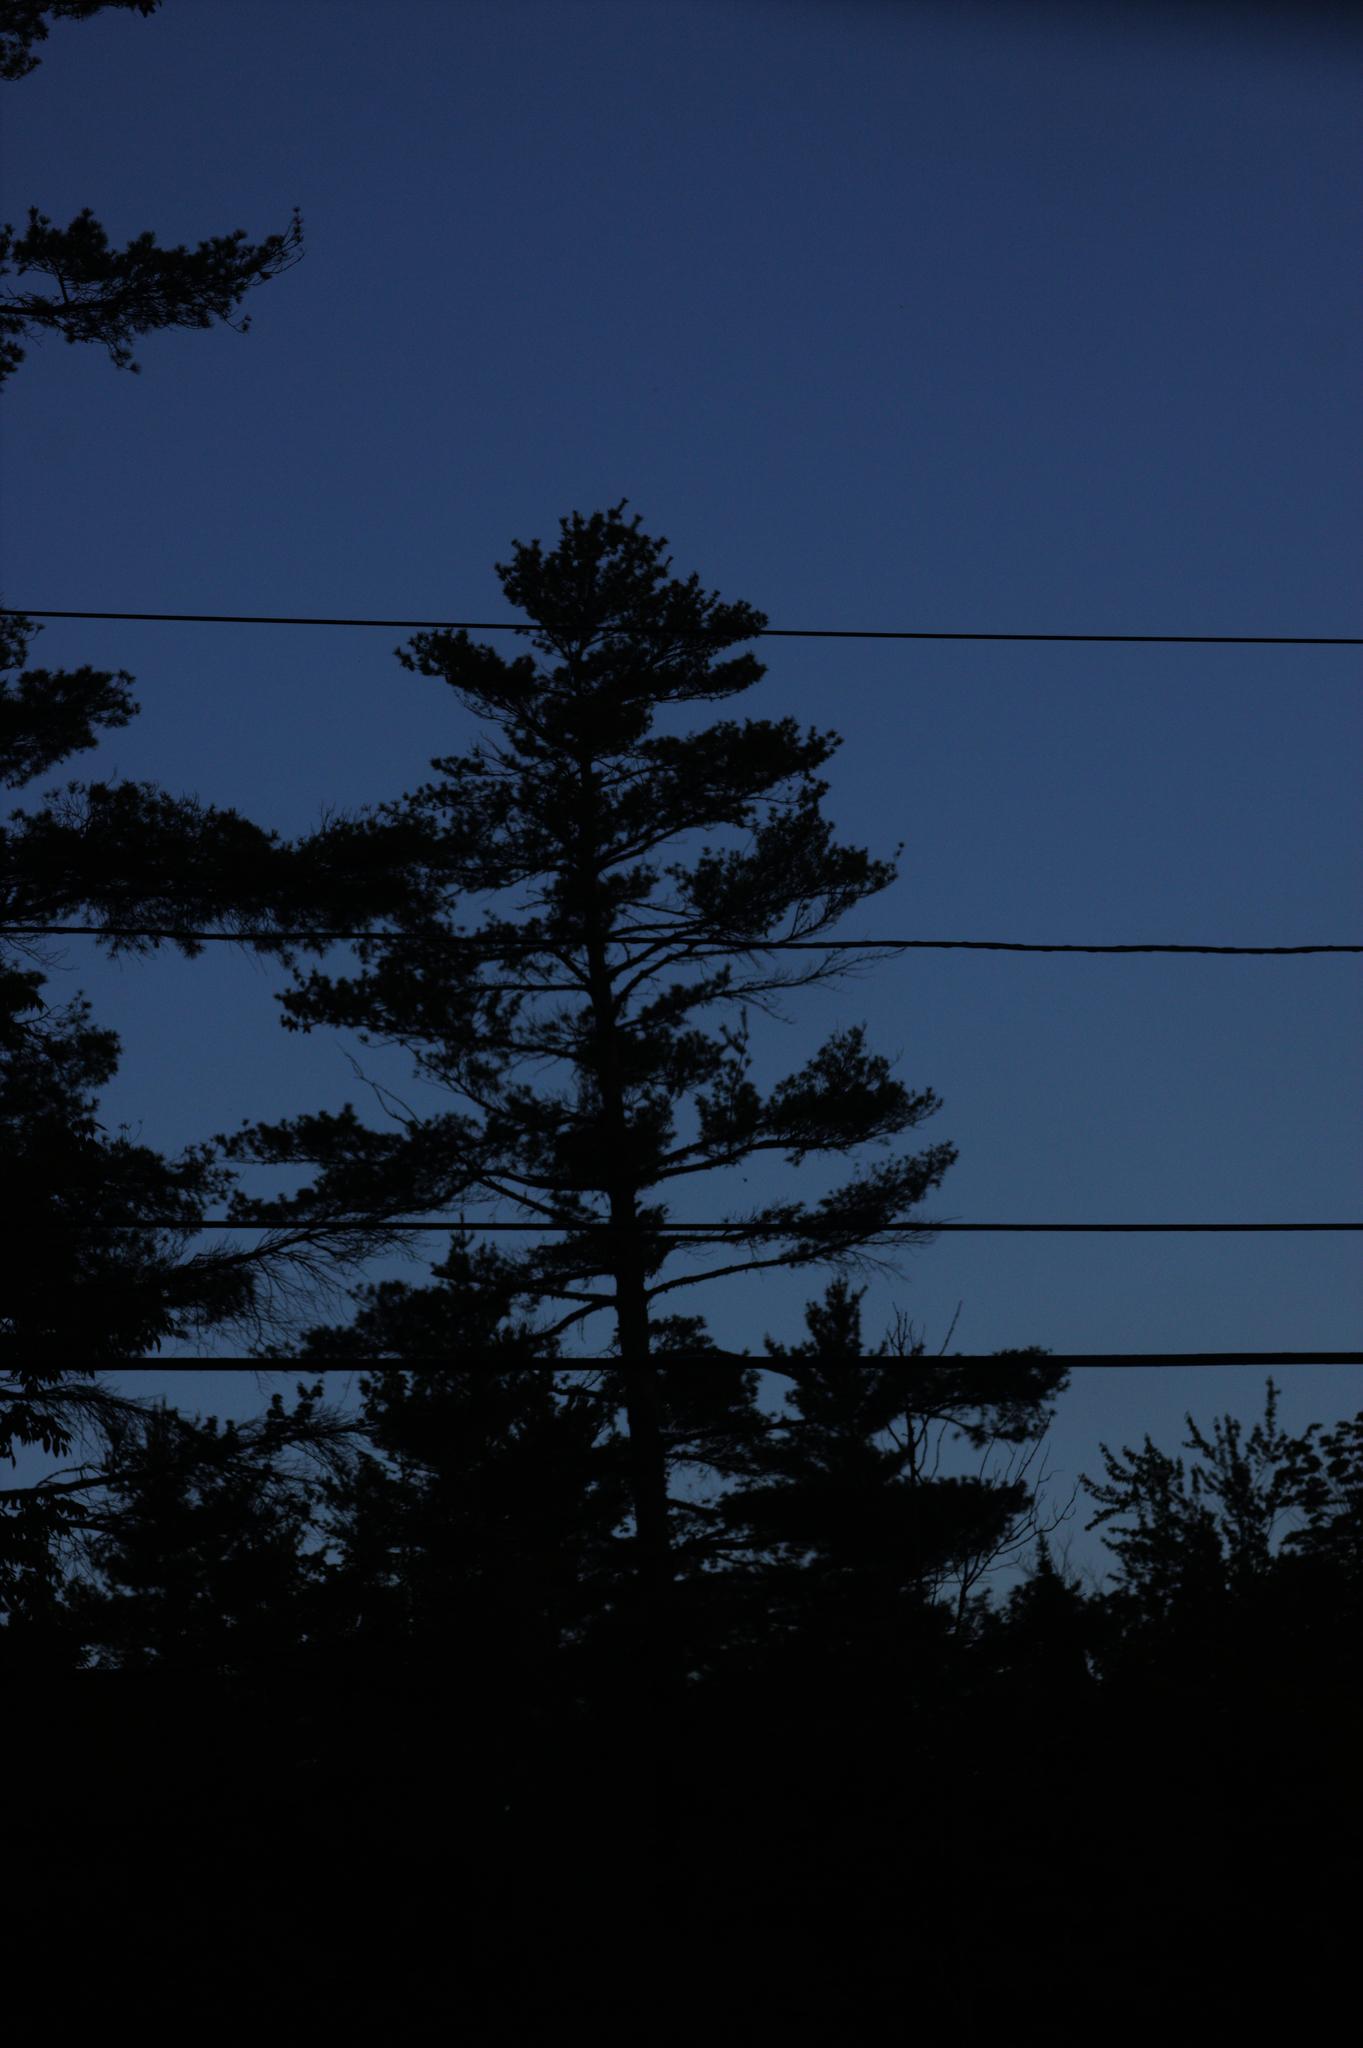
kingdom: Plantae
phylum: Tracheophyta
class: Pinopsida
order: Pinales
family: Pinaceae
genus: Pinus
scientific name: Pinus strobus
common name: Weymouth pine
